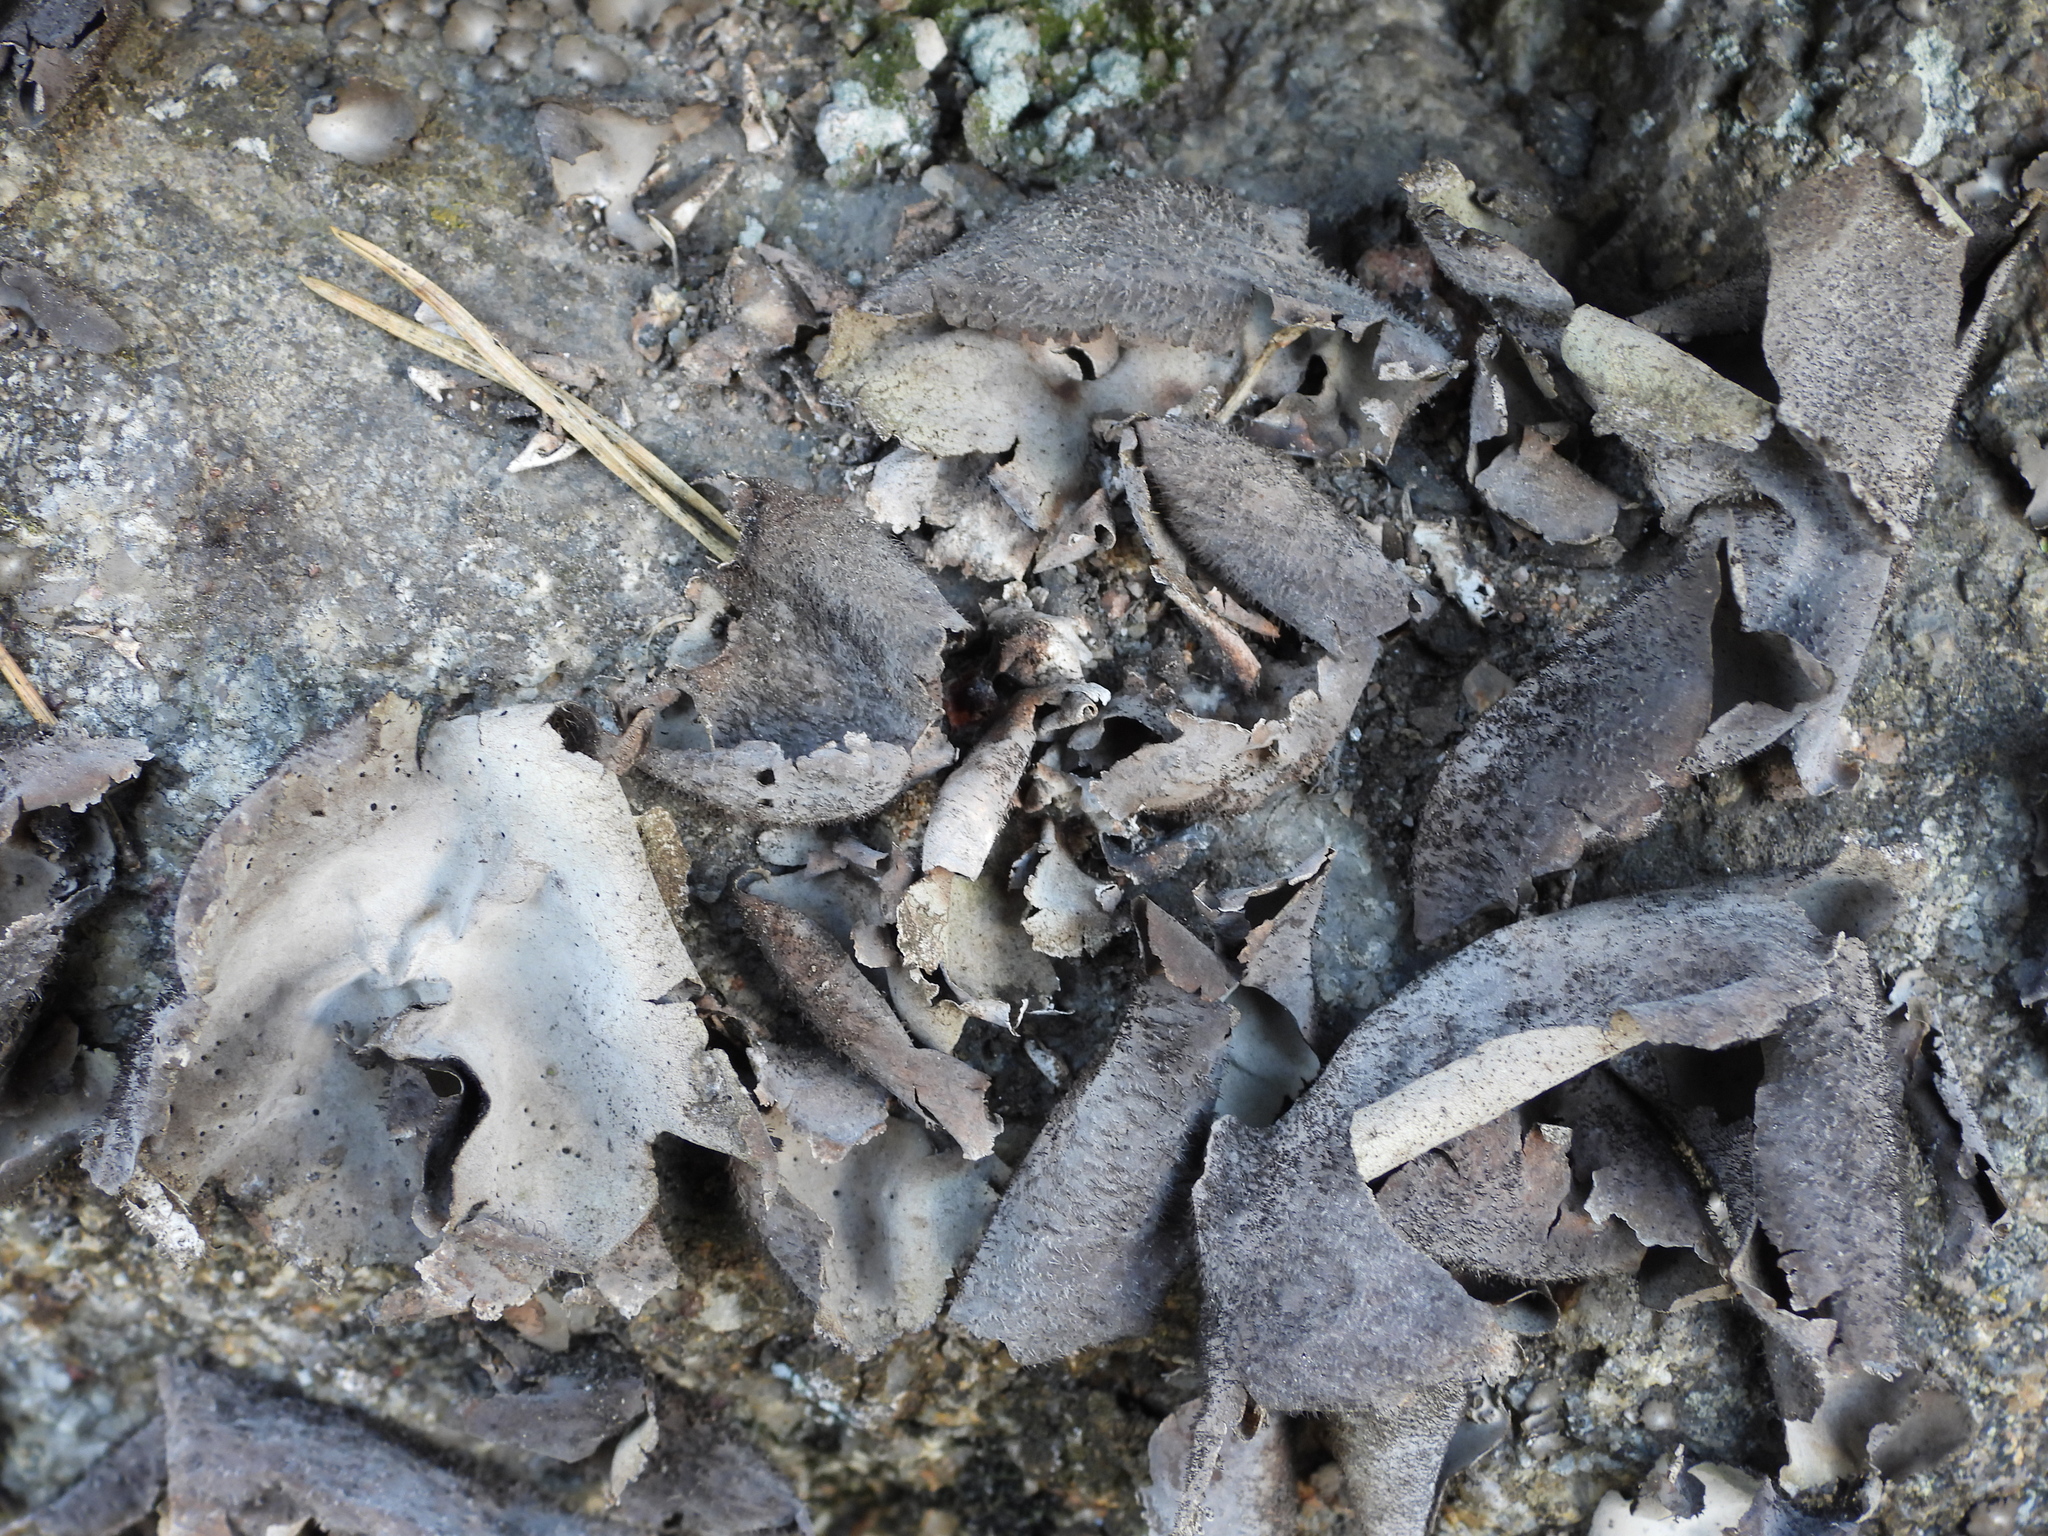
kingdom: Fungi
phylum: Ascomycota
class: Lecanoromycetes
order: Umbilicariales
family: Umbilicariaceae
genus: Umbilicaria
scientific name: Umbilicaria hirsuta
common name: Granulating rocktripe lichen
